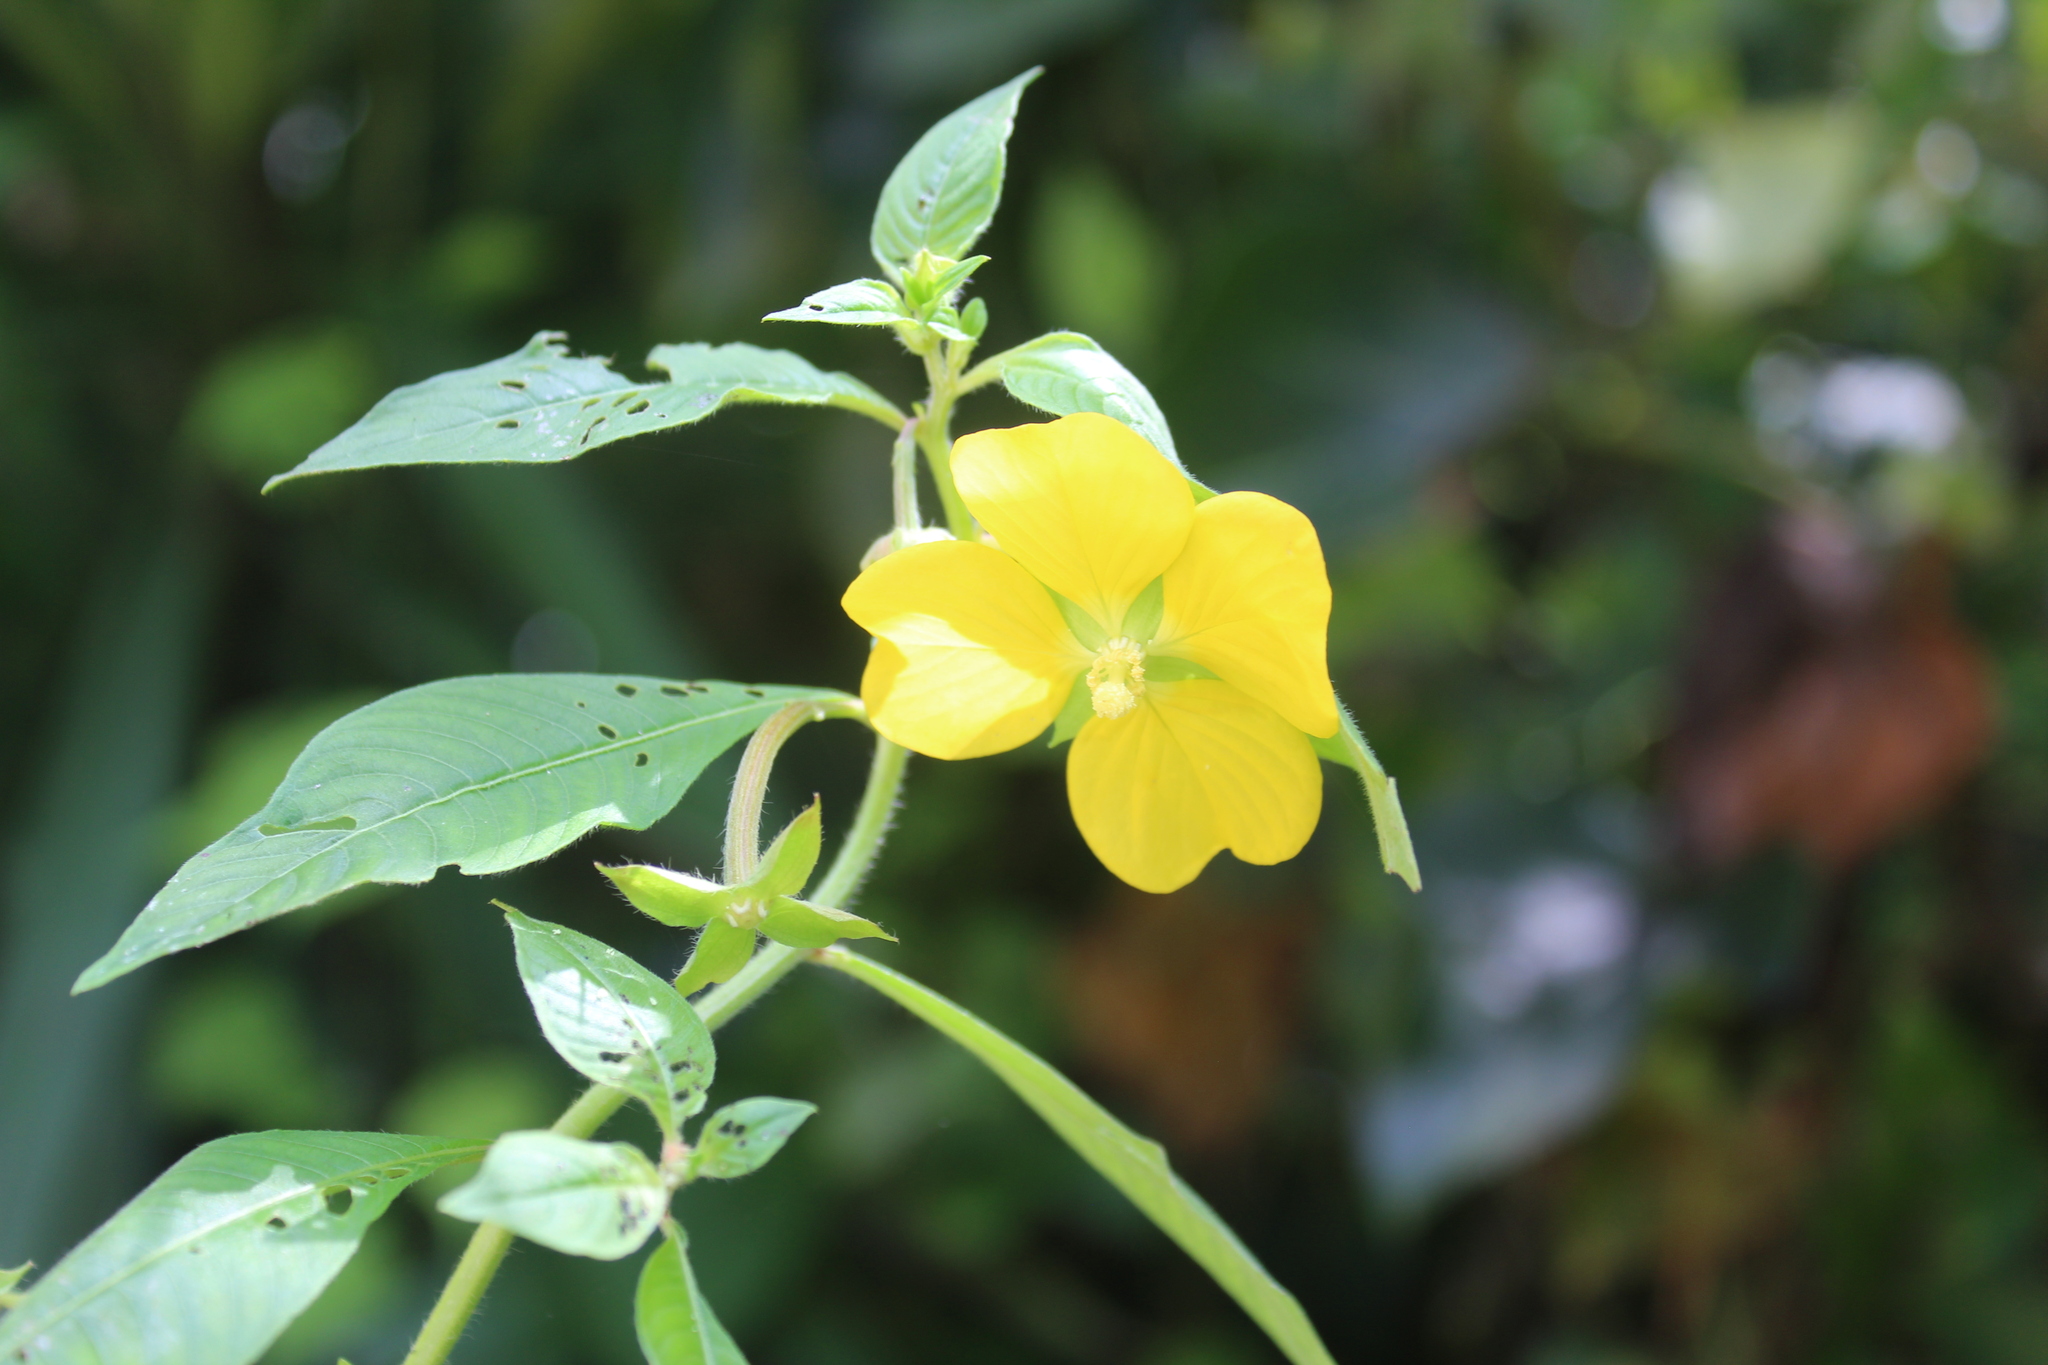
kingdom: Plantae
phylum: Tracheophyta
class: Magnoliopsida
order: Myrtales
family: Onagraceae
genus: Ludwigia
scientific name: Ludwigia octovalvis
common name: Water-primrose
